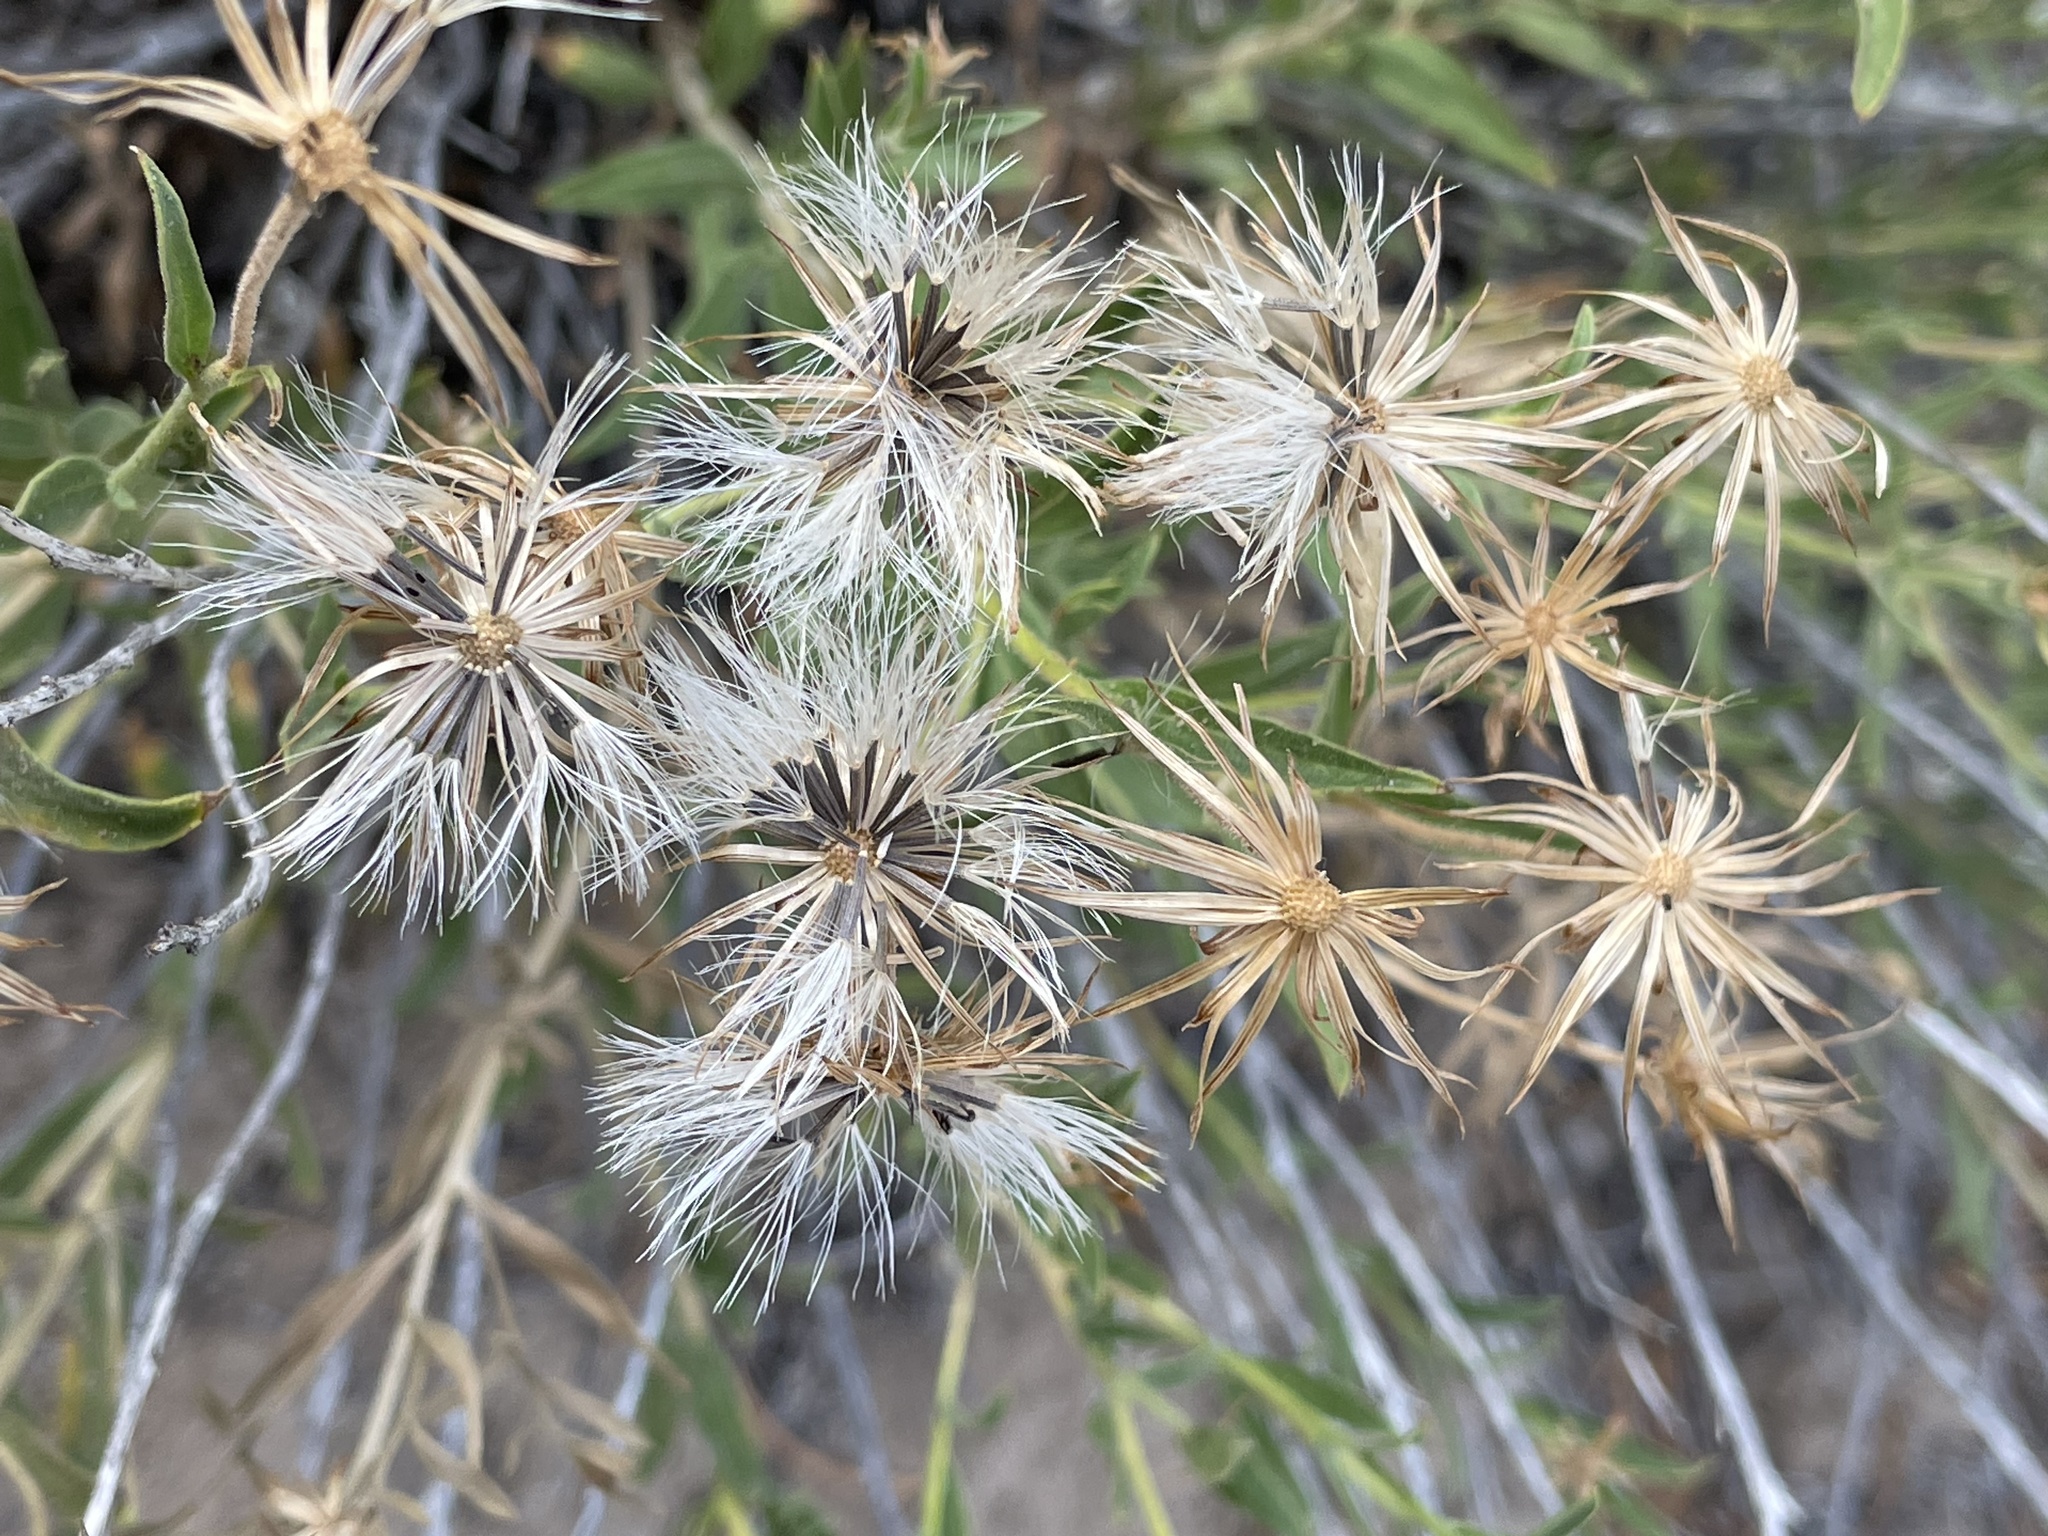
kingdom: Plantae
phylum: Tracheophyta
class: Magnoliopsida
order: Asterales
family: Asteraceae
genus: Brickellia
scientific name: Brickellia oblongifolia
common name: Mojave brickellbush
